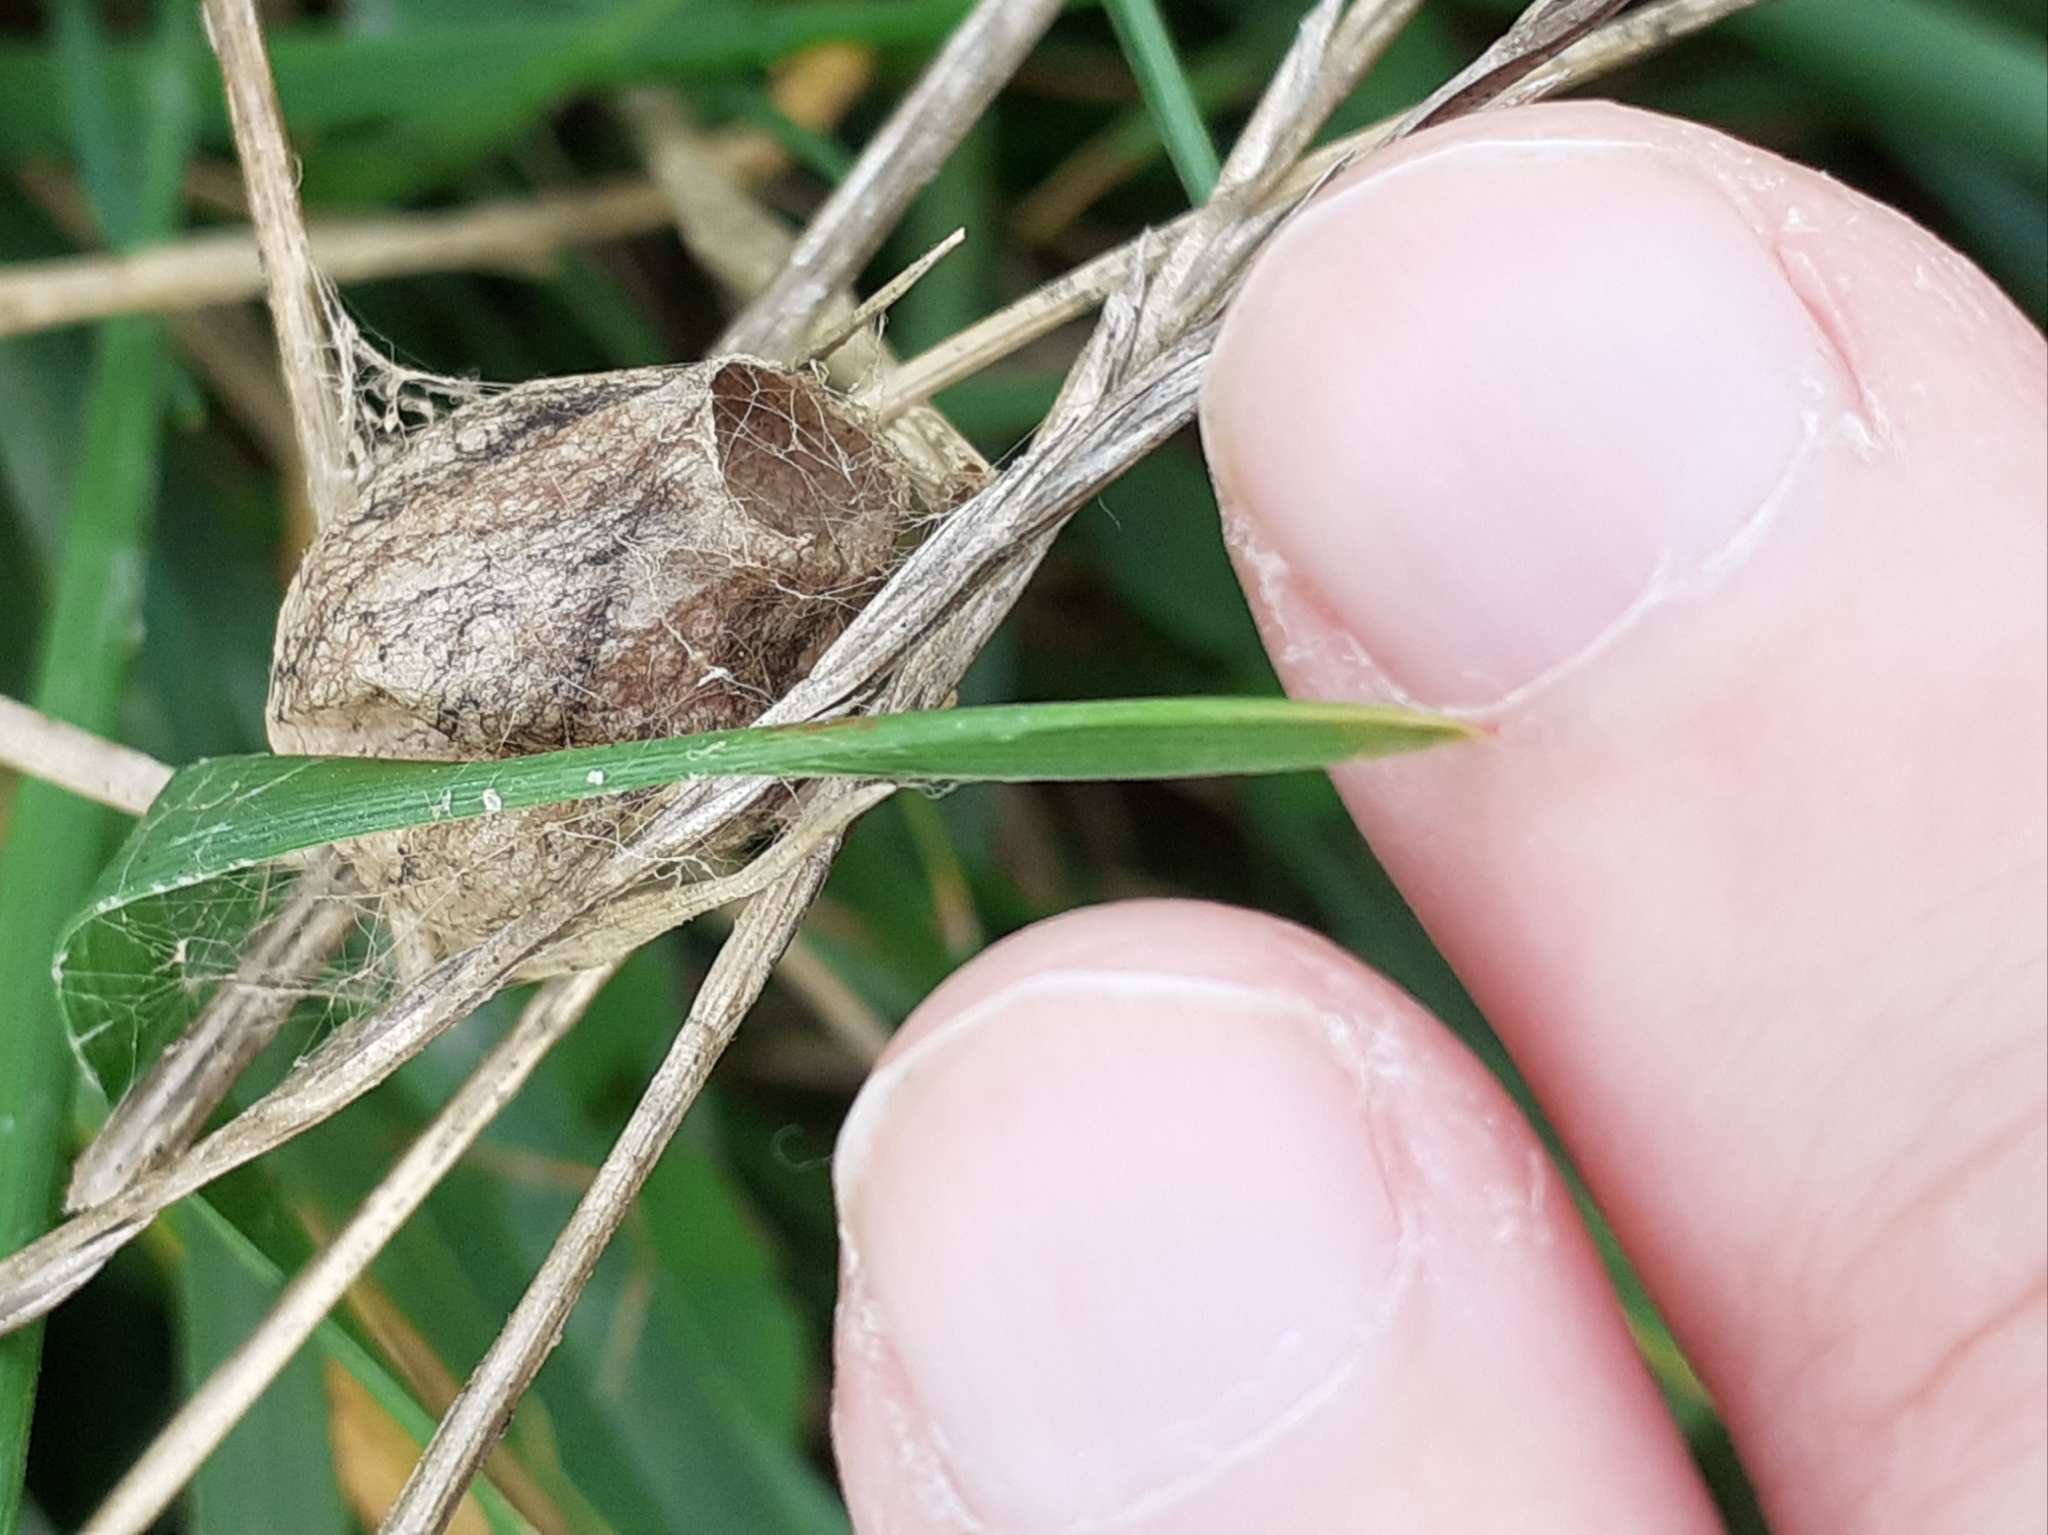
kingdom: Animalia
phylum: Arthropoda
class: Arachnida
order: Araneae
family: Araneidae
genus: Argiope
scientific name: Argiope bruennichi
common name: Wasp spider
